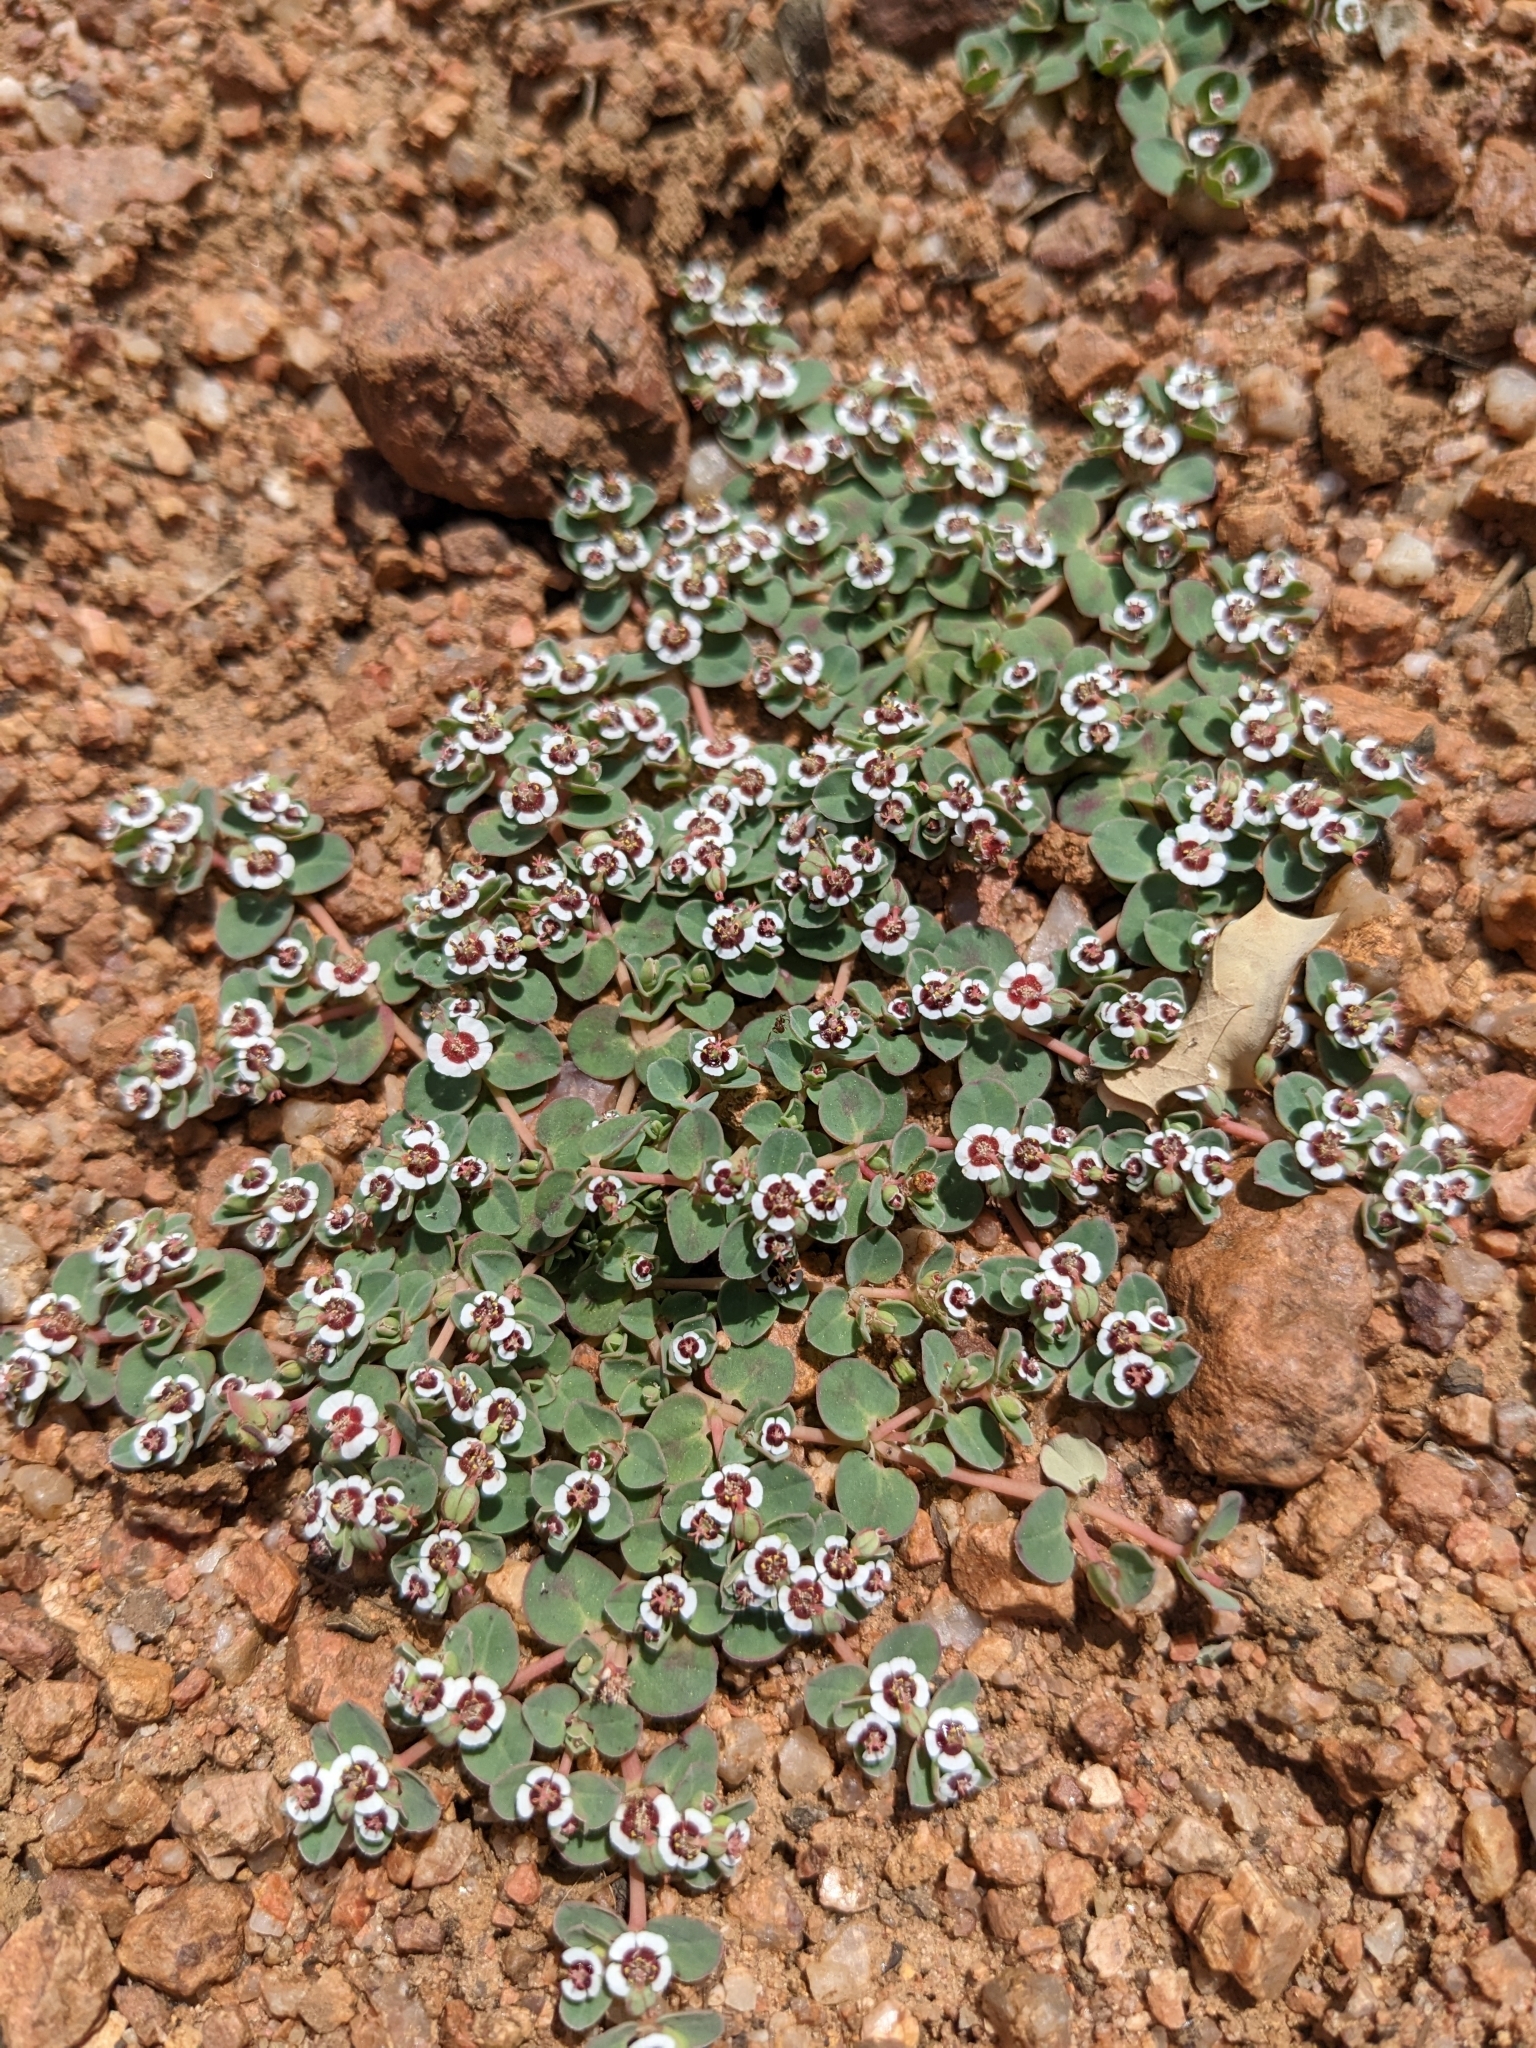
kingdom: Plantae
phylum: Tracheophyta
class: Magnoliopsida
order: Malpighiales
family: Euphorbiaceae
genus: Euphorbia
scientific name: Euphorbia albomarginata
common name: Whitemargin sandmat
